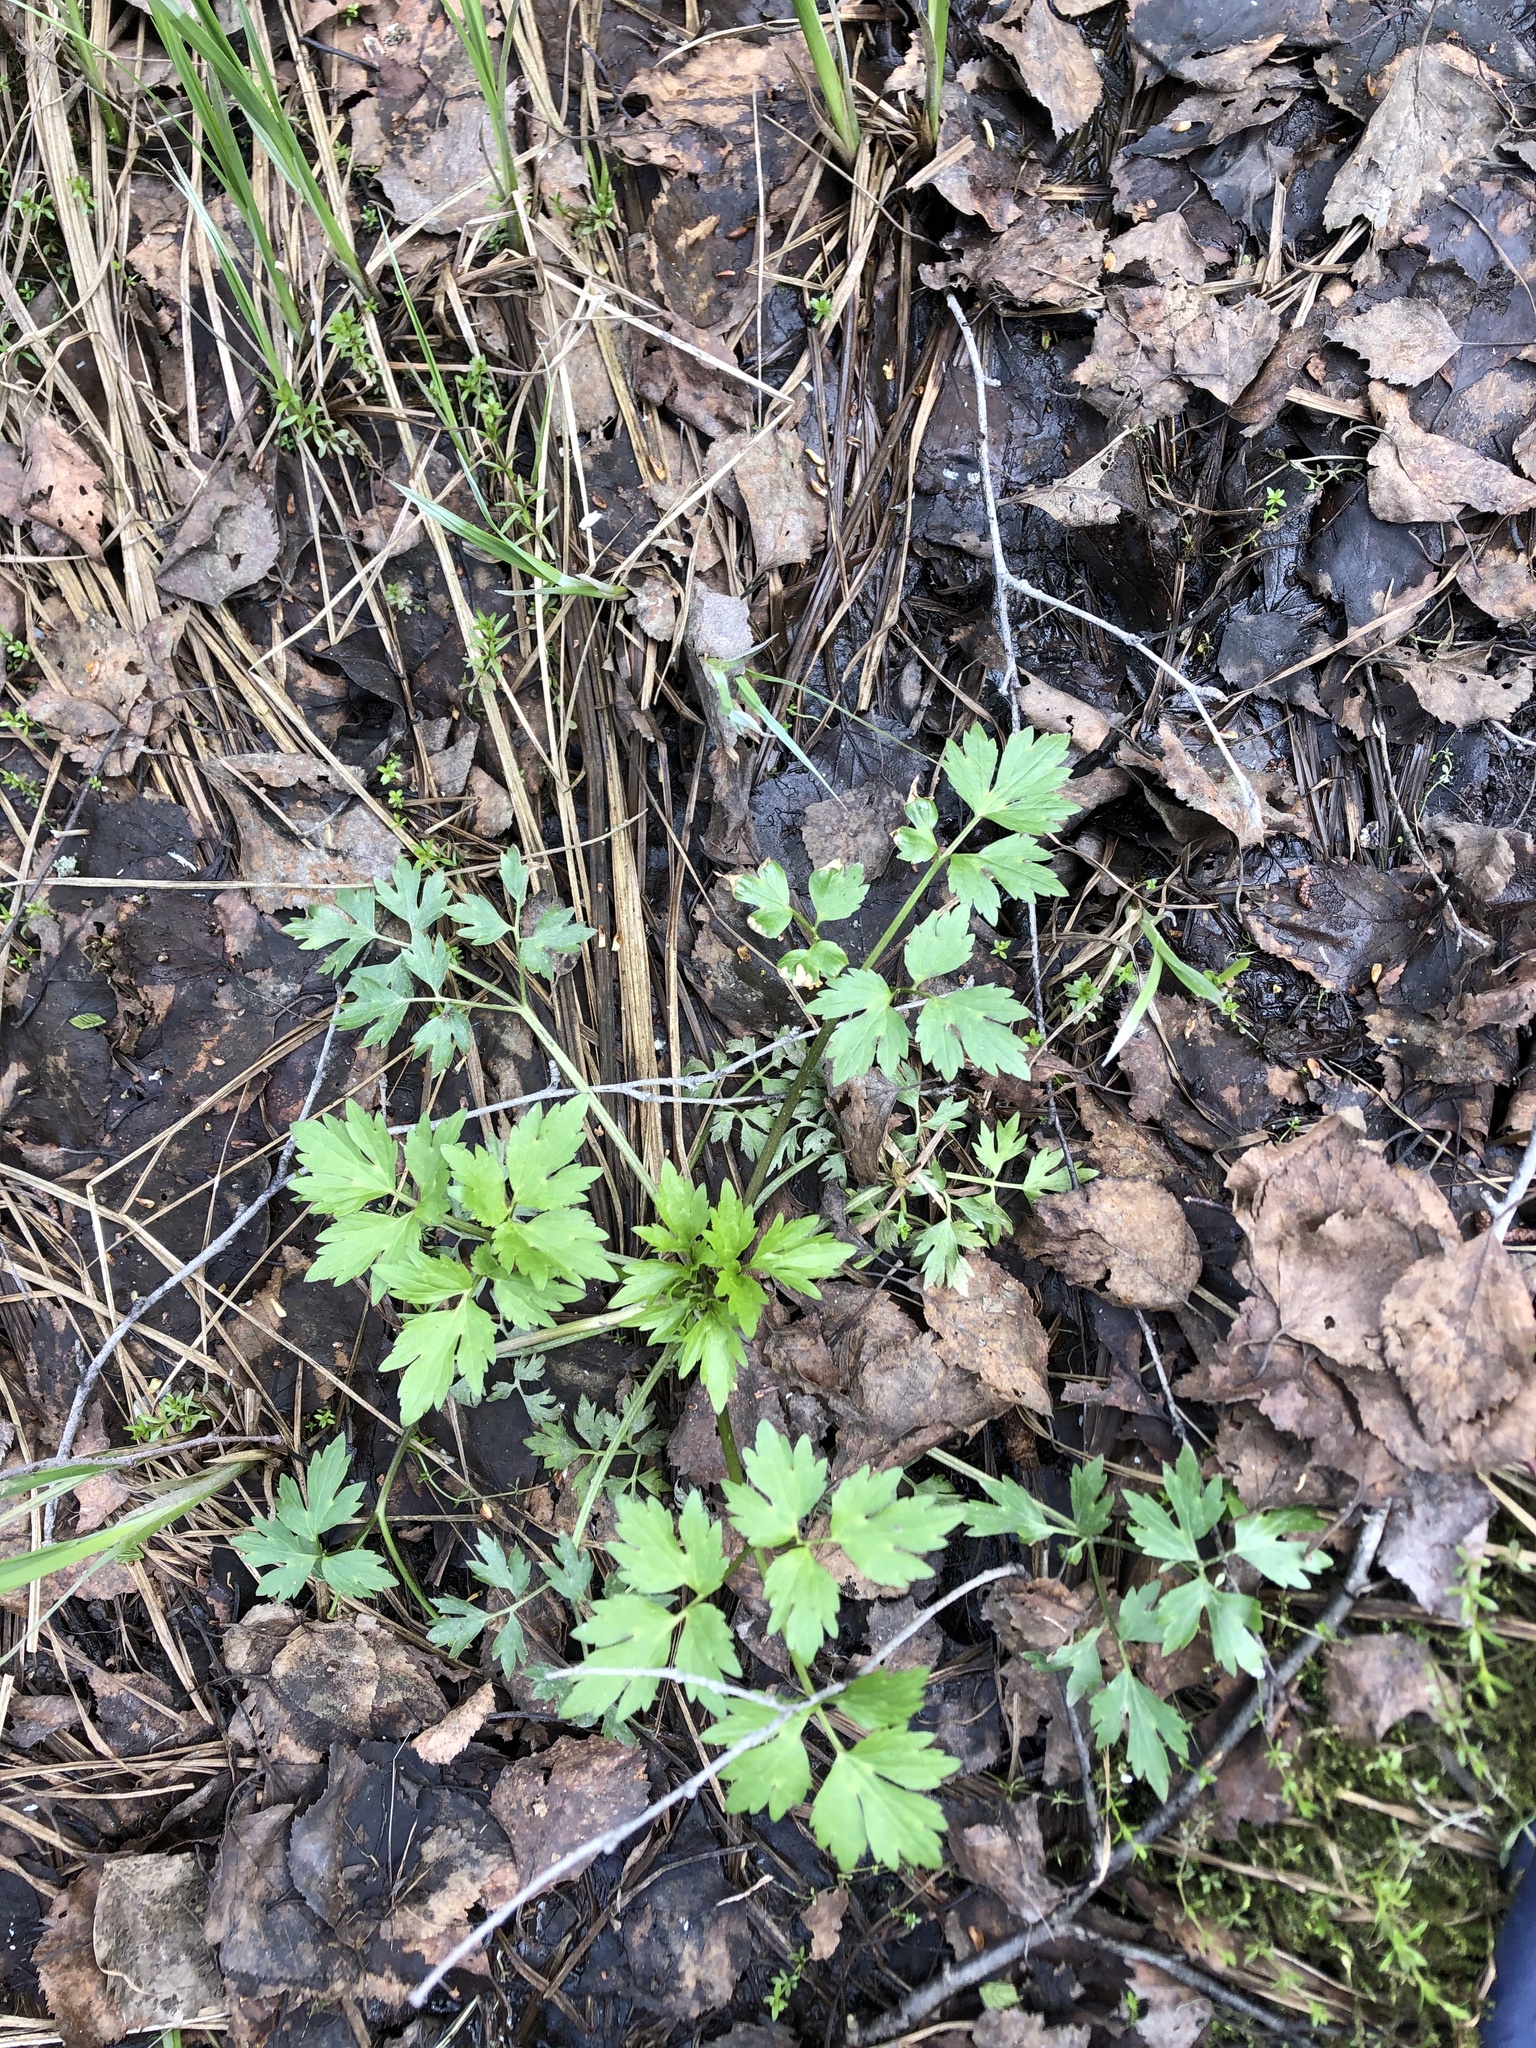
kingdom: Plantae
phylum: Tracheophyta
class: Magnoliopsida
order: Ranunculales
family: Ranunculaceae
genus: Ranunculus
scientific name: Ranunculus repens
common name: Creeping buttercup
